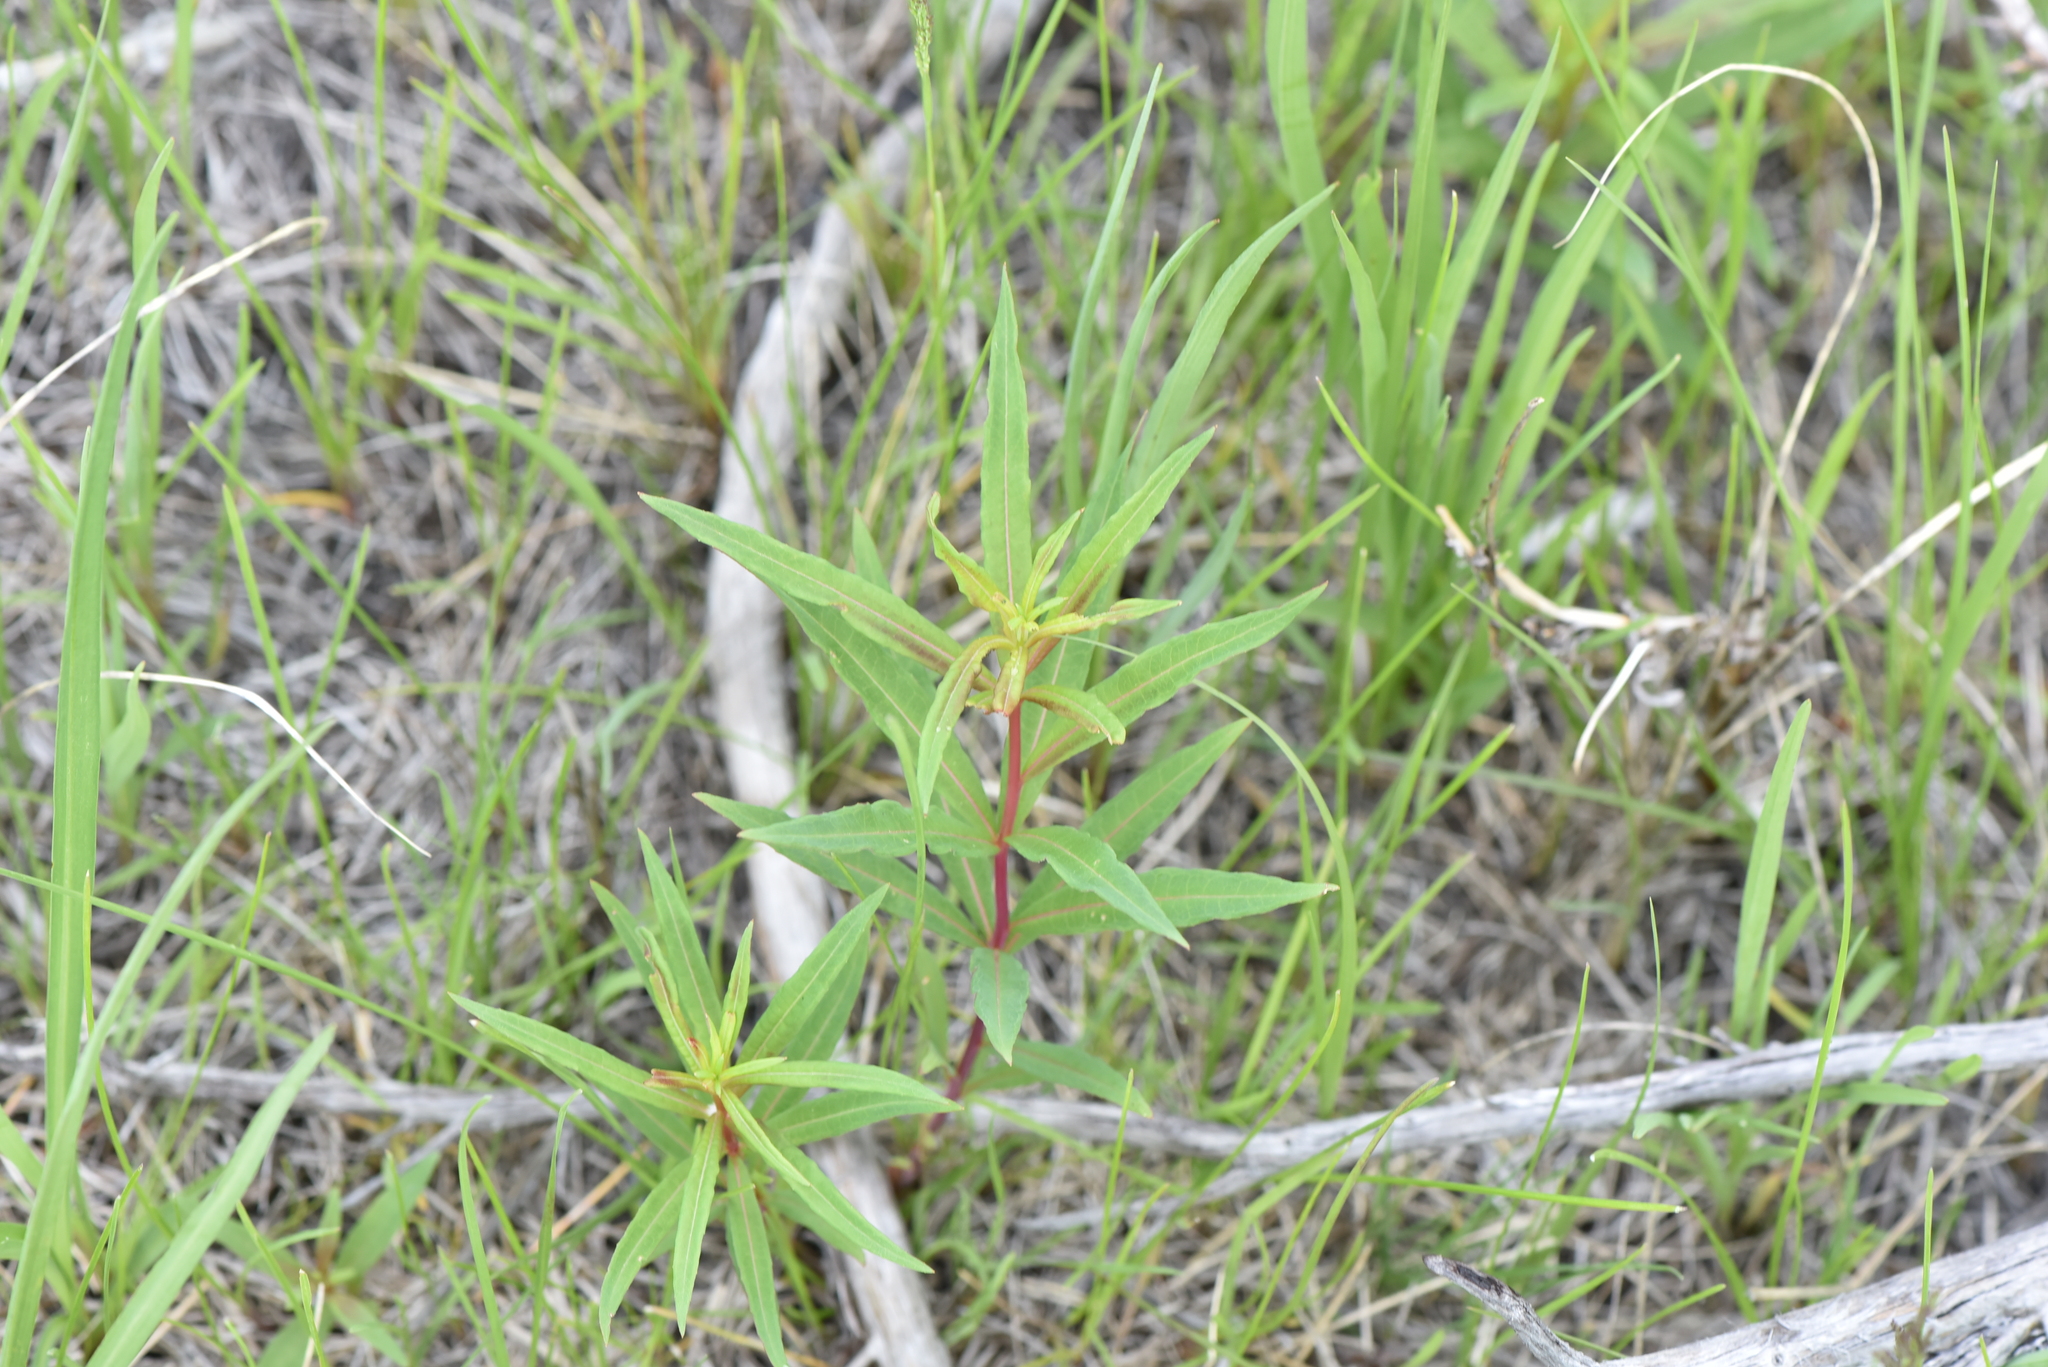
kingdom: Plantae
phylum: Tracheophyta
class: Magnoliopsida
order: Myrtales
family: Onagraceae
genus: Chamaenerion
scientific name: Chamaenerion angustifolium
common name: Fireweed
